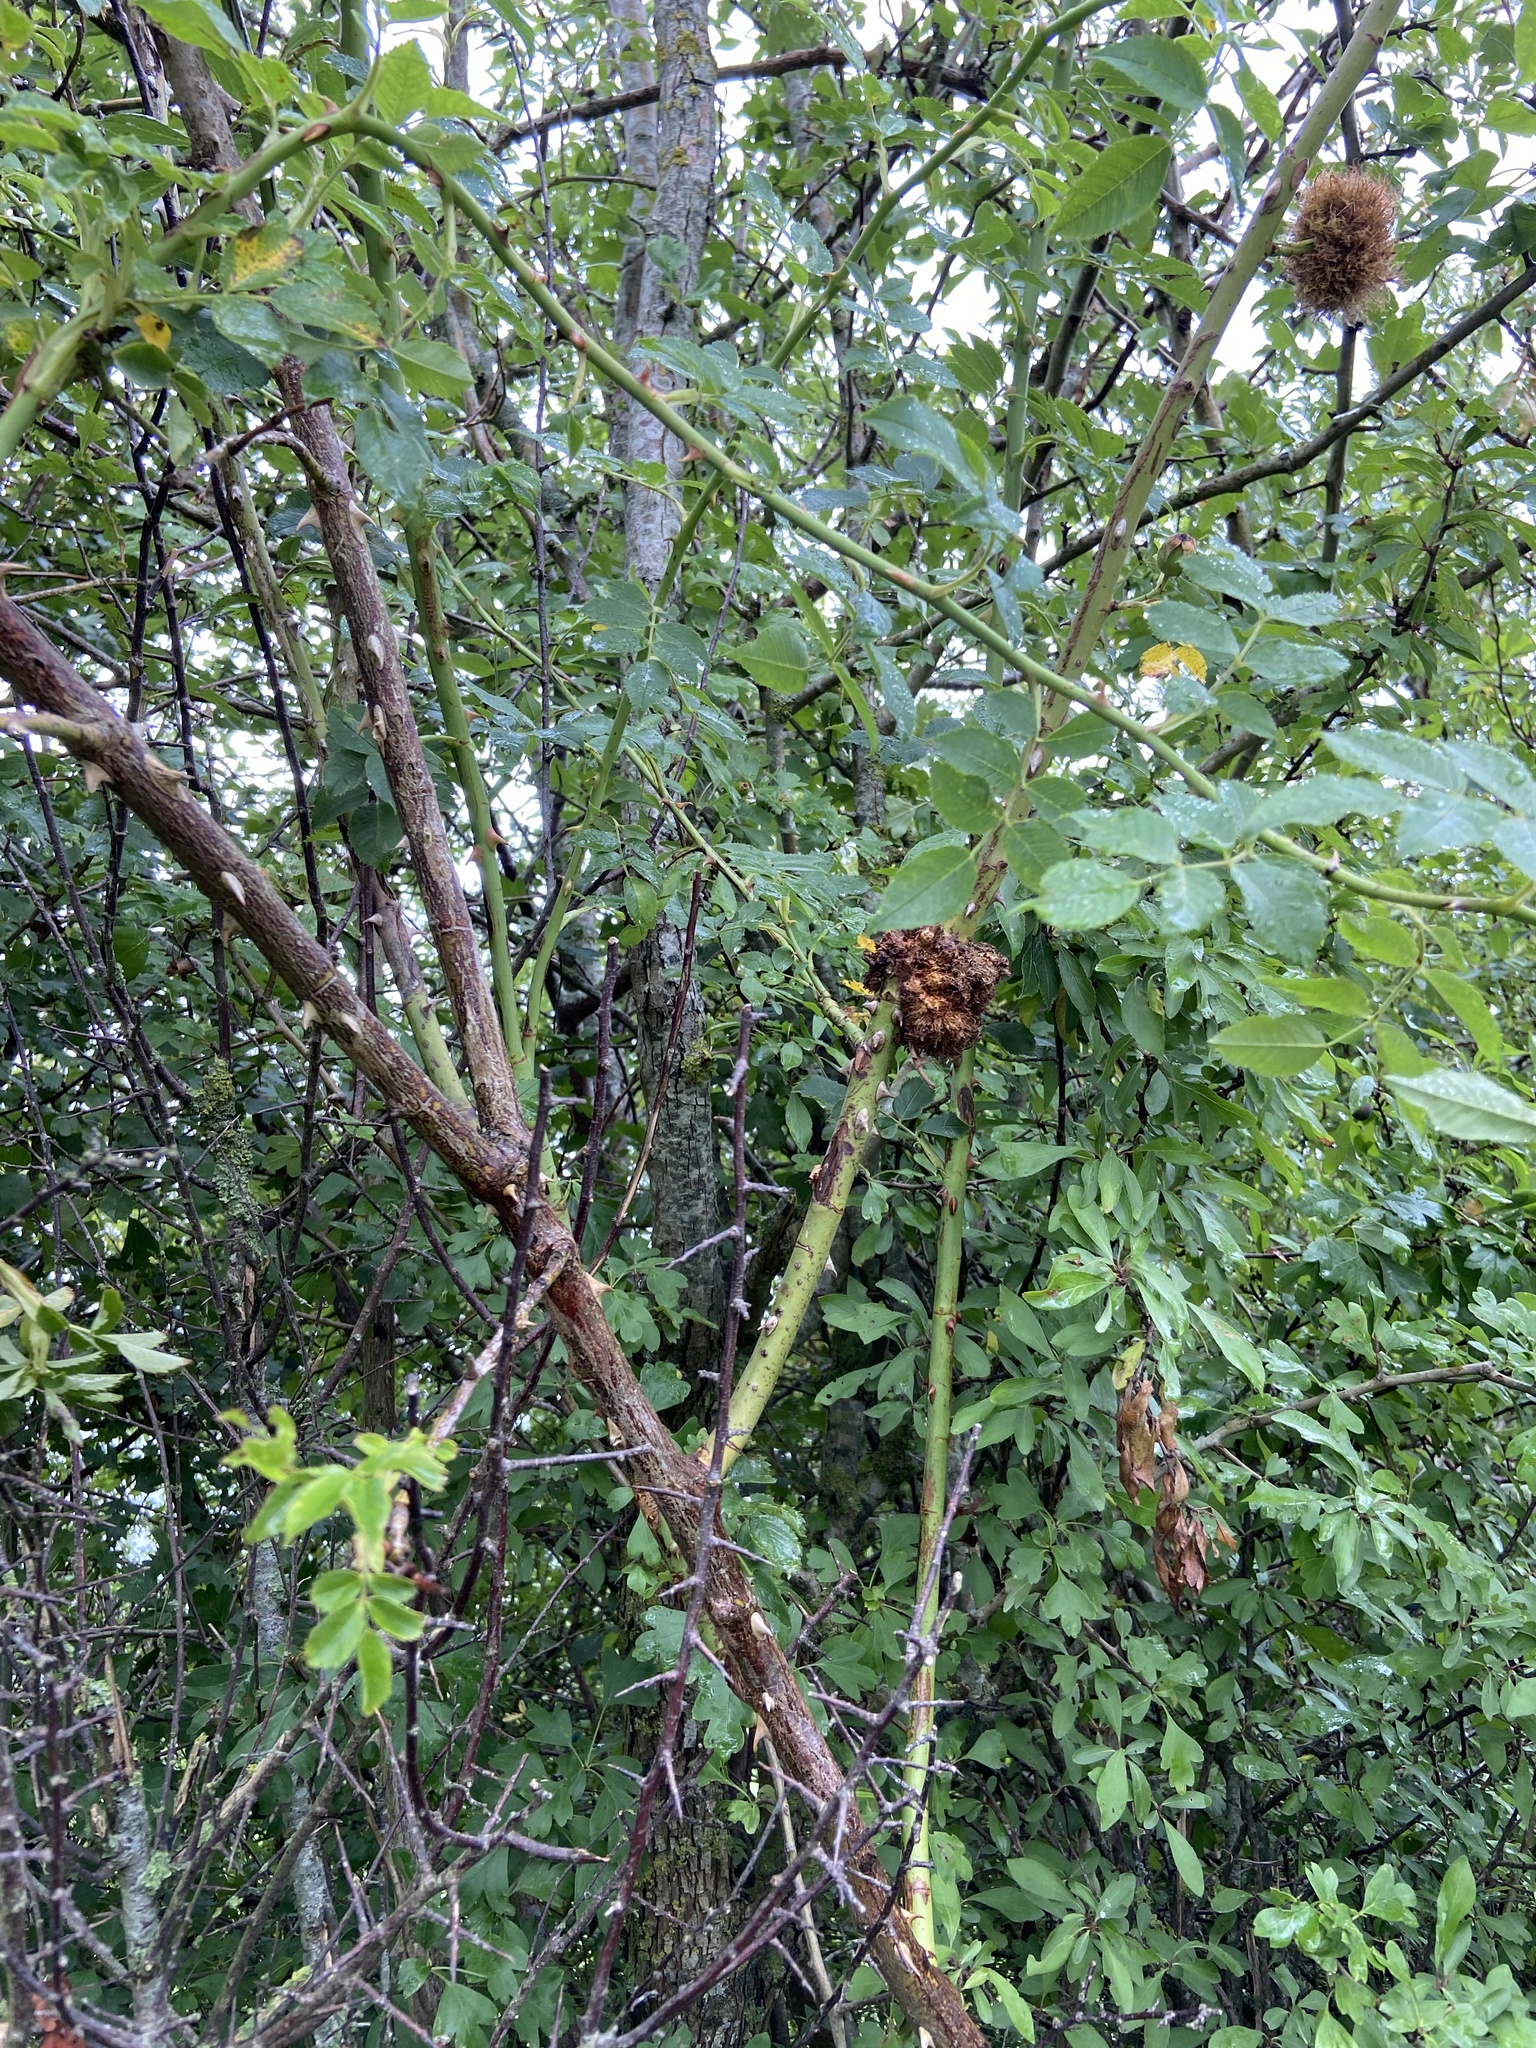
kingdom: Animalia
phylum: Arthropoda
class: Insecta
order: Hymenoptera
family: Cynipidae
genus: Diplolepis
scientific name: Diplolepis rosae
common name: Bedeguar gall
